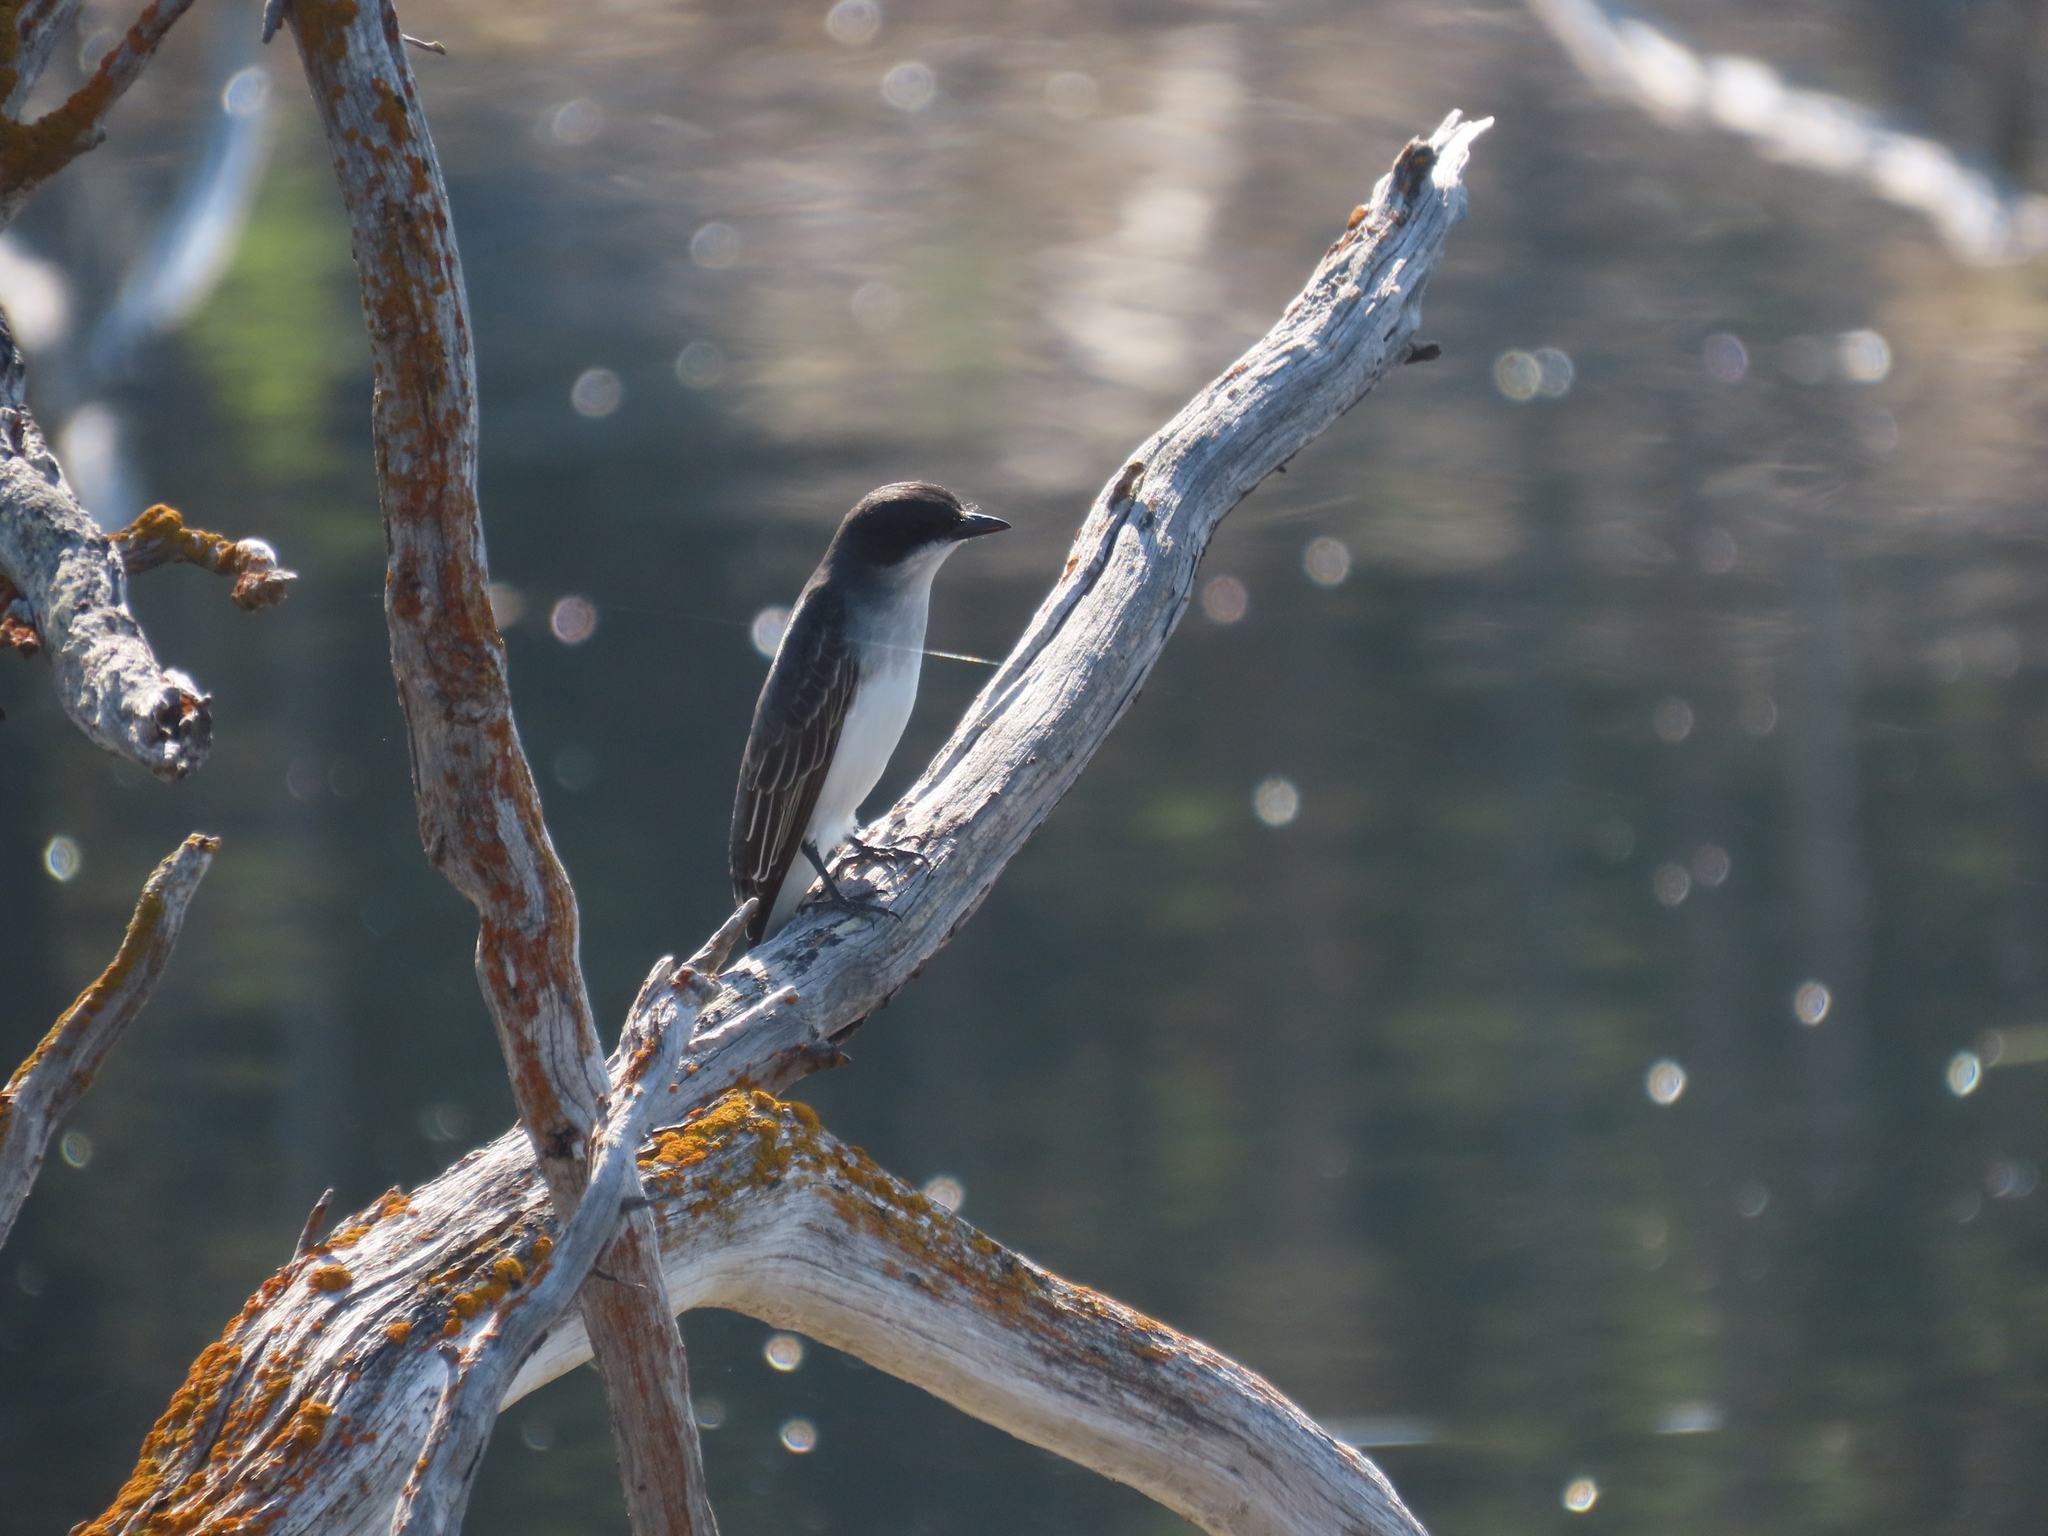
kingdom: Animalia
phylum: Chordata
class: Aves
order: Passeriformes
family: Tyrannidae
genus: Tyrannus
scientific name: Tyrannus tyrannus
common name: Eastern kingbird
